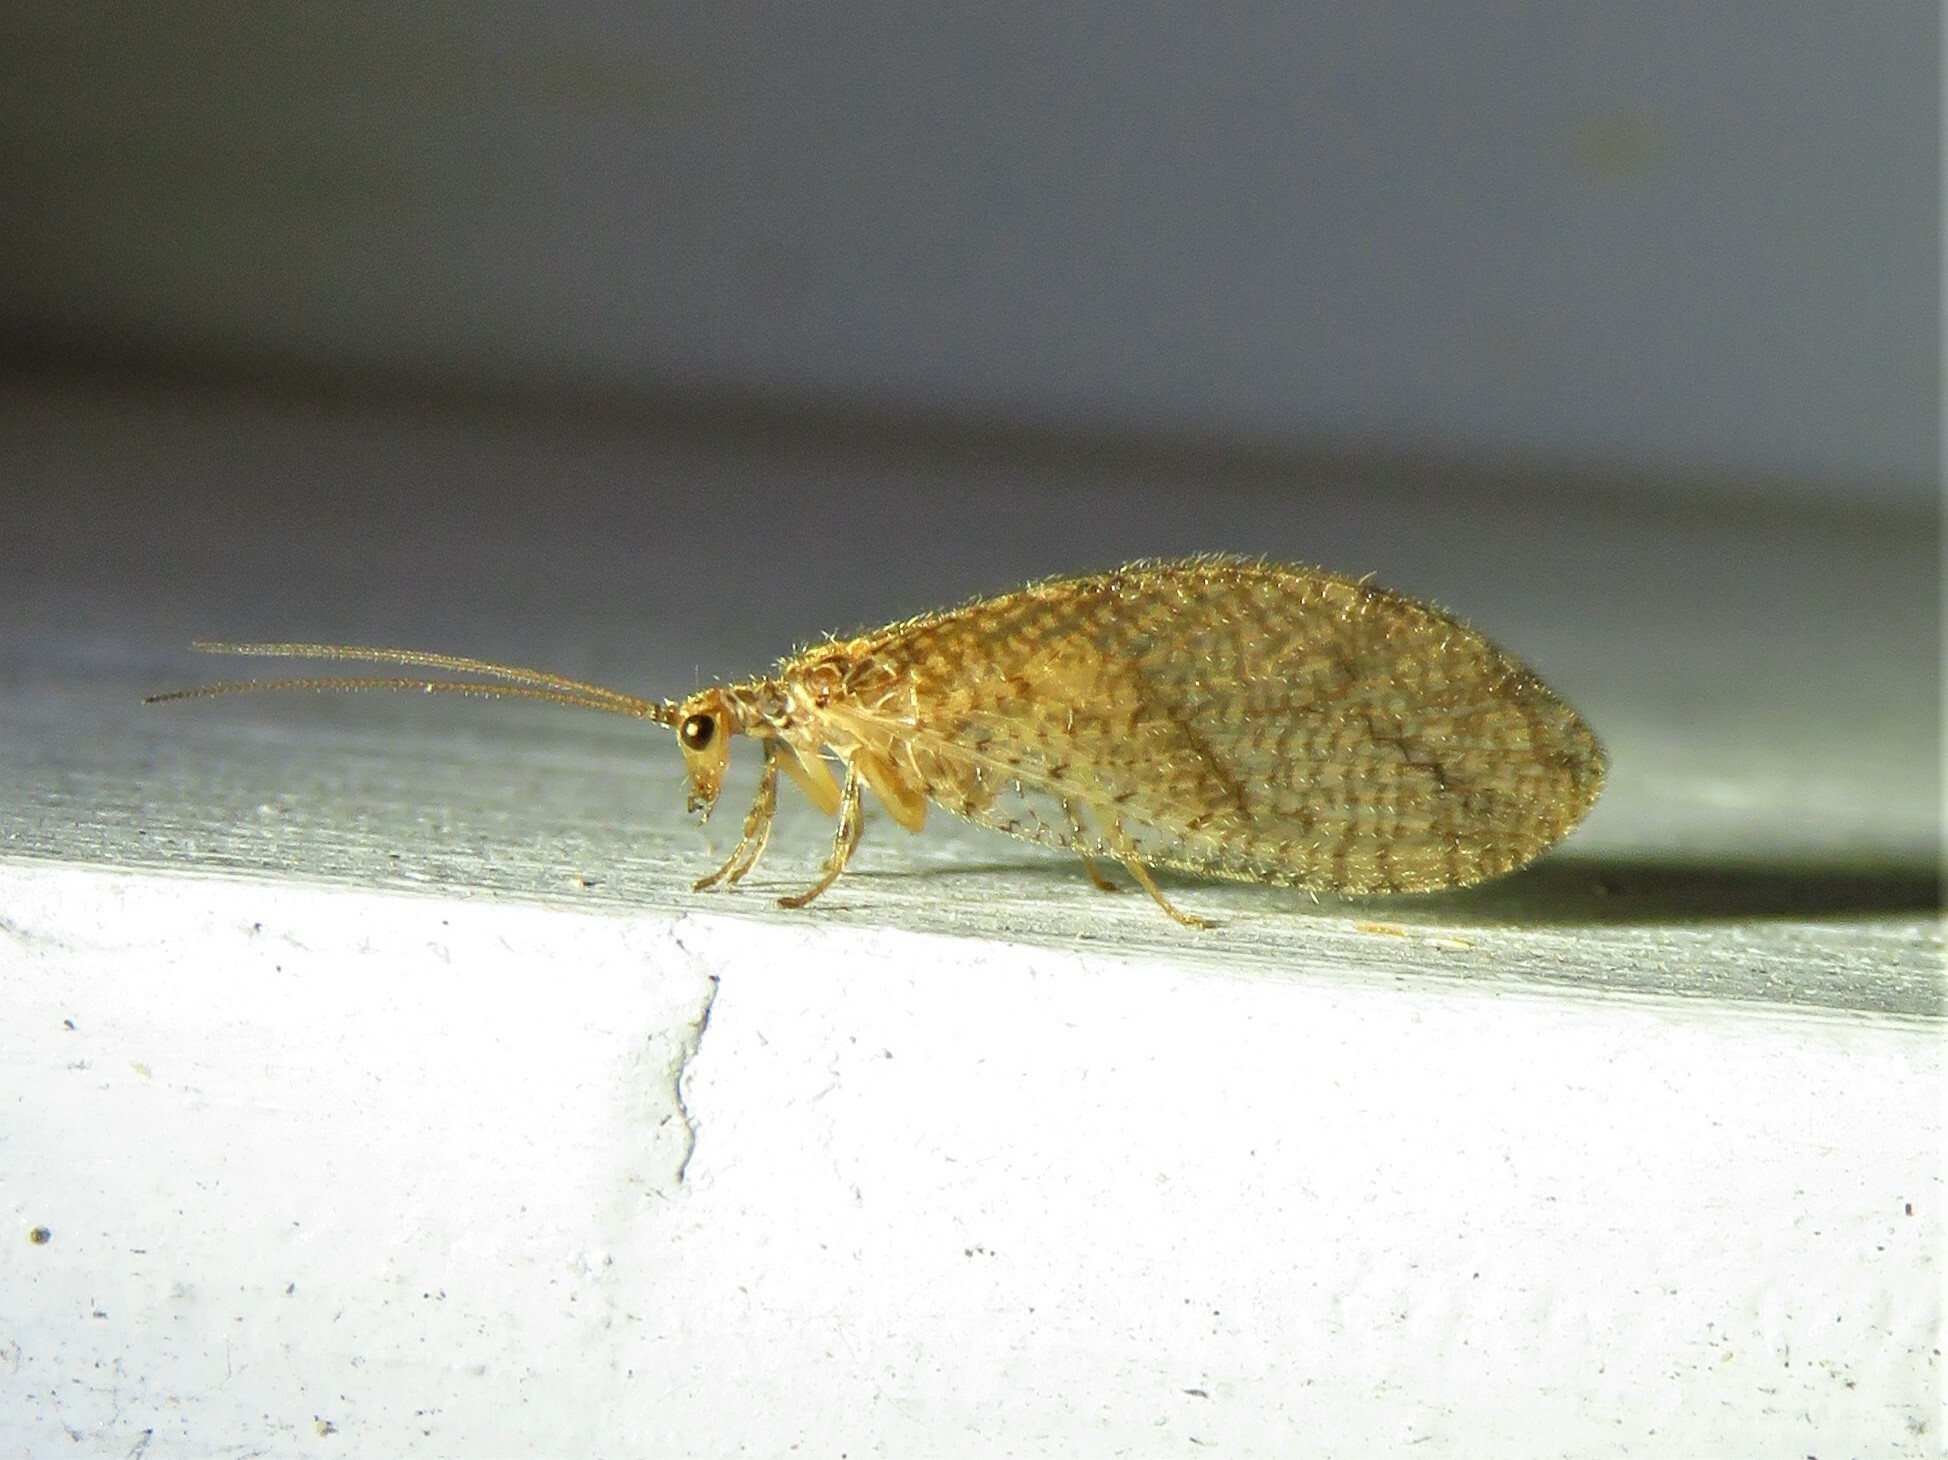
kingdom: Animalia
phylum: Arthropoda
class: Insecta
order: Neuroptera
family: Hemerobiidae
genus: Micromus
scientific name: Micromus posticus
